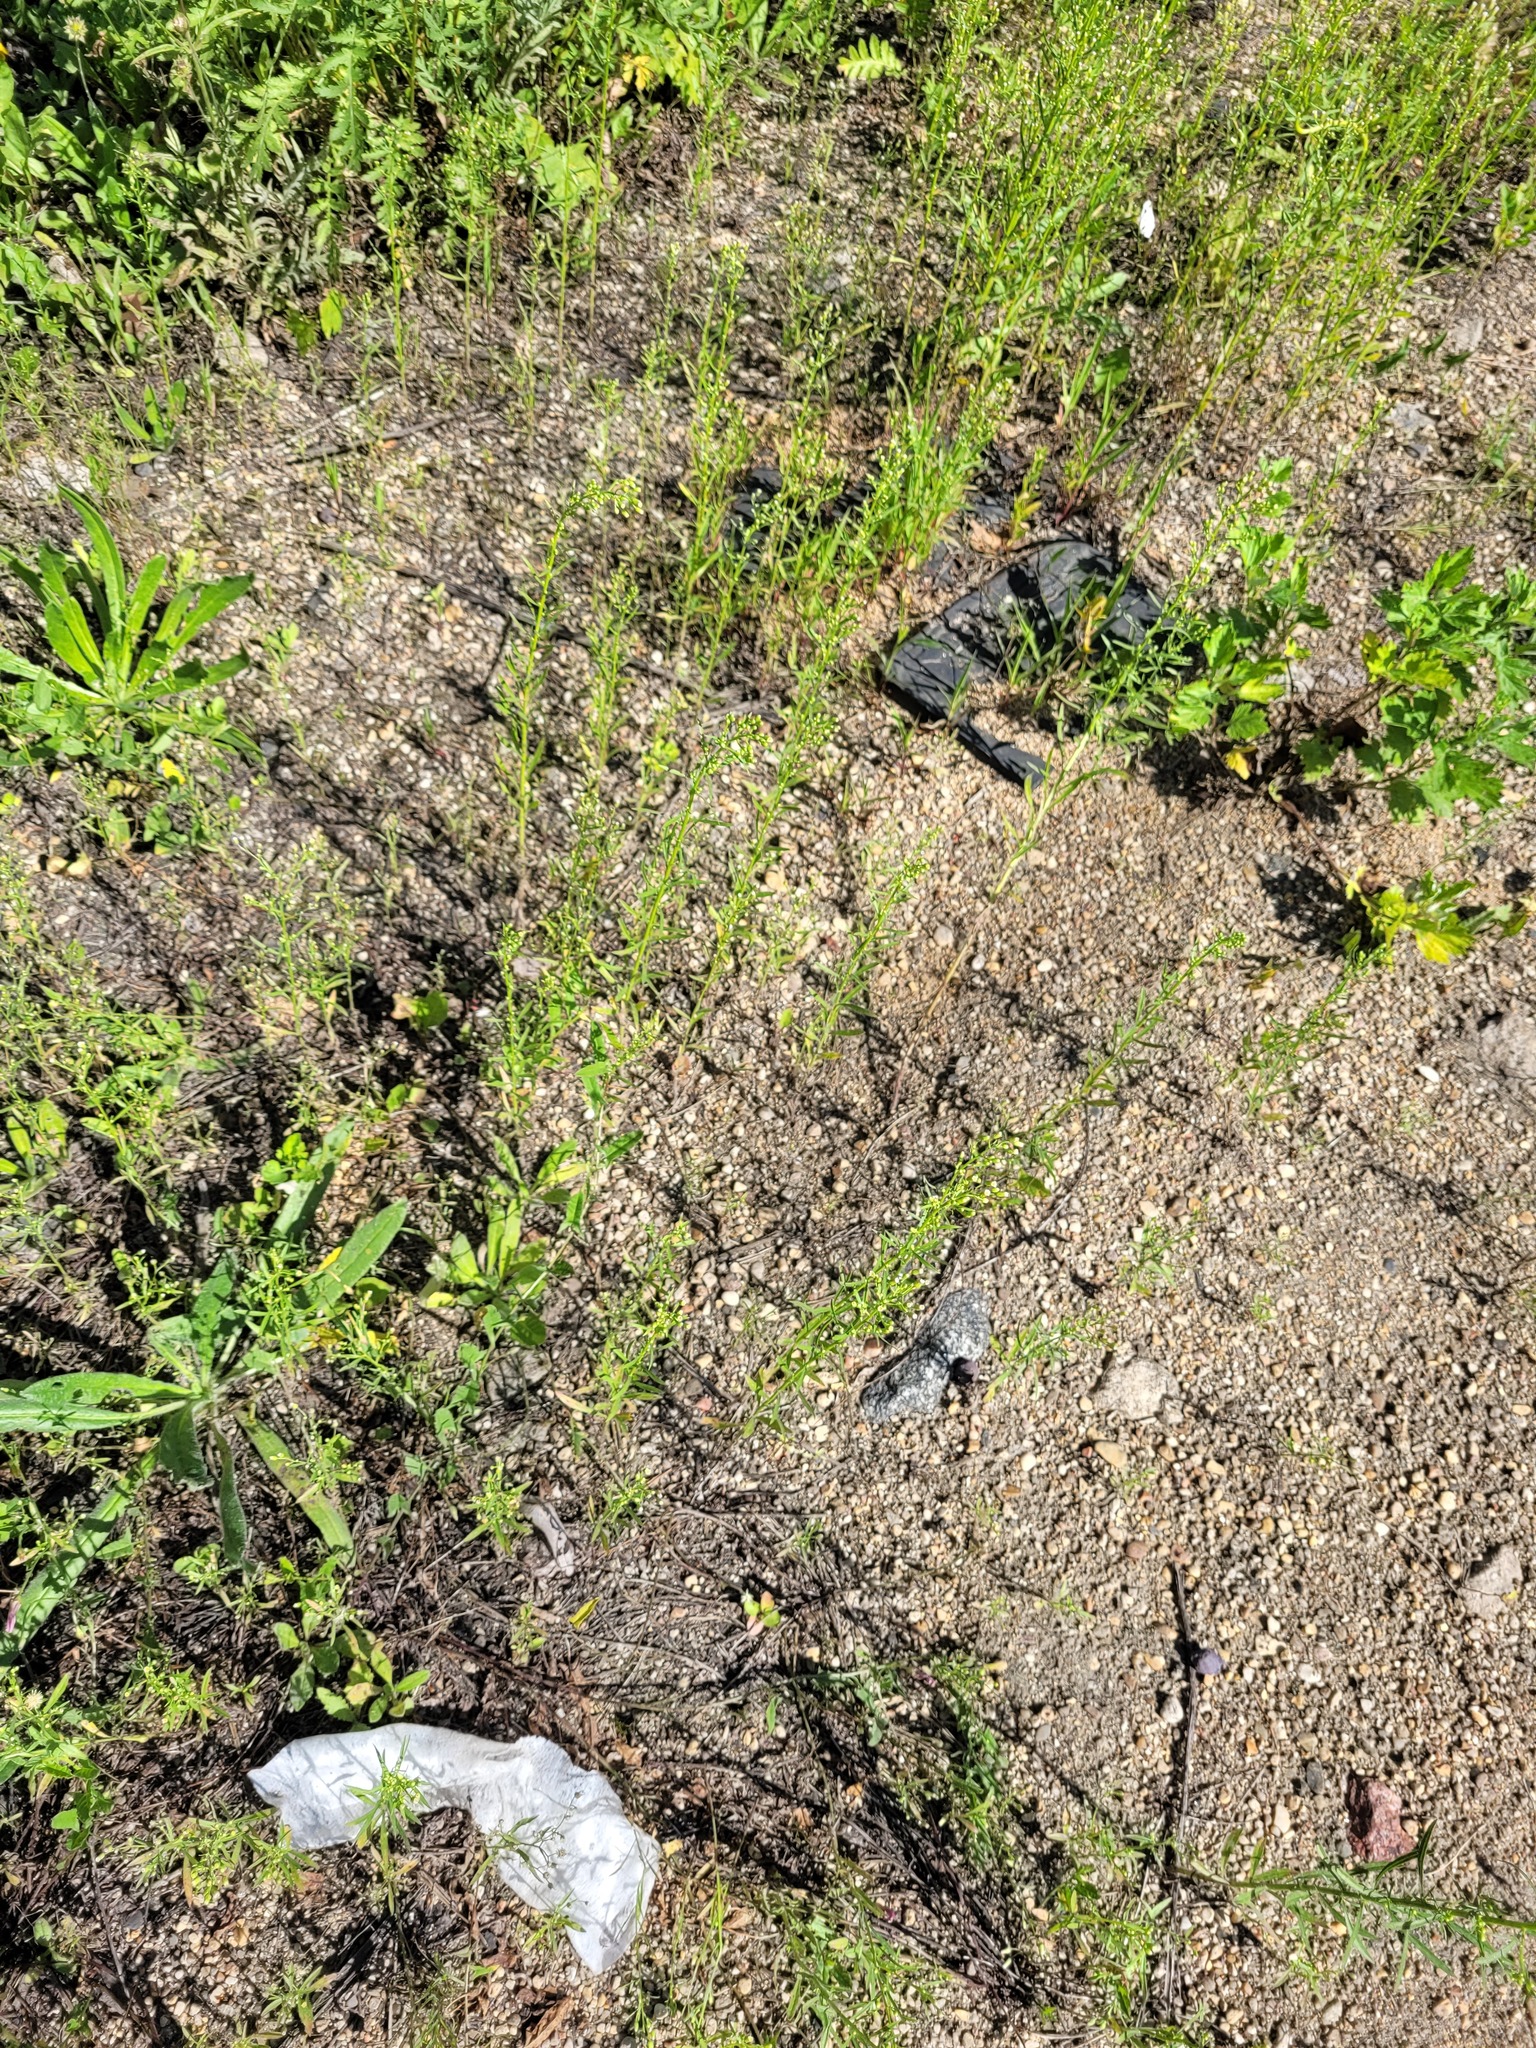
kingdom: Plantae
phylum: Tracheophyta
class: Magnoliopsida
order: Asterales
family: Asteraceae
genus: Erigeron
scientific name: Erigeron canadensis
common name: Canadian fleabane
